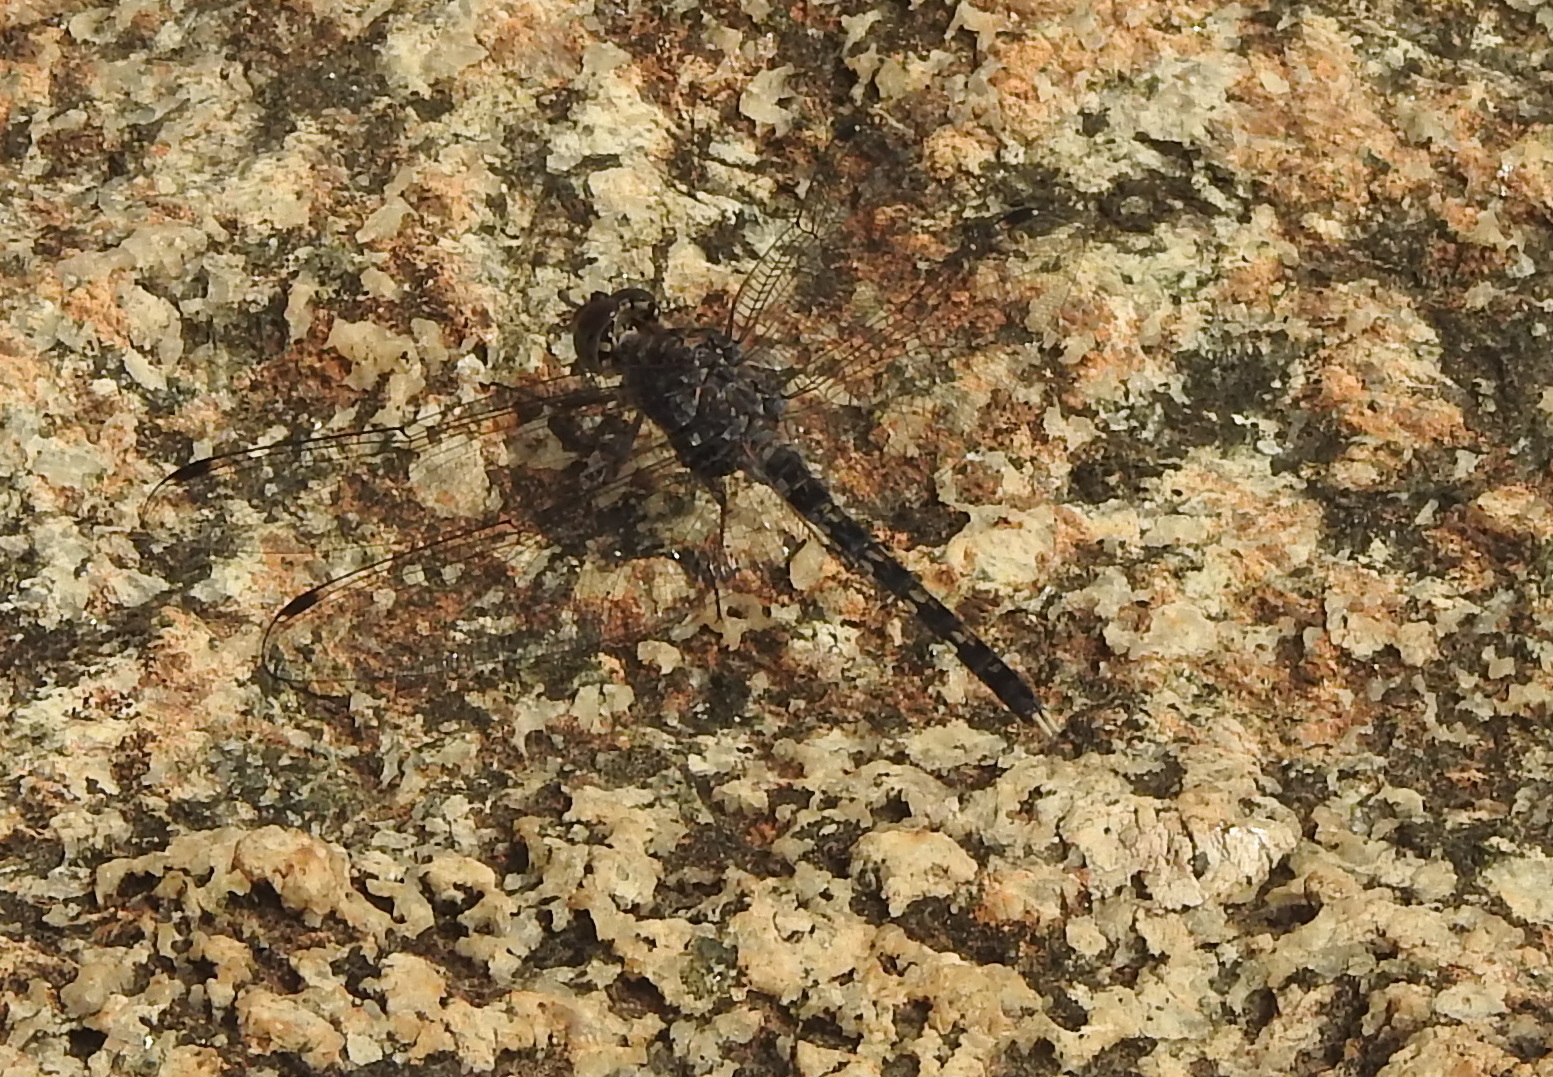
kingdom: Animalia
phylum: Arthropoda
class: Insecta
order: Odonata
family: Libellulidae
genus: Bradinopyga
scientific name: Bradinopyga geminata
